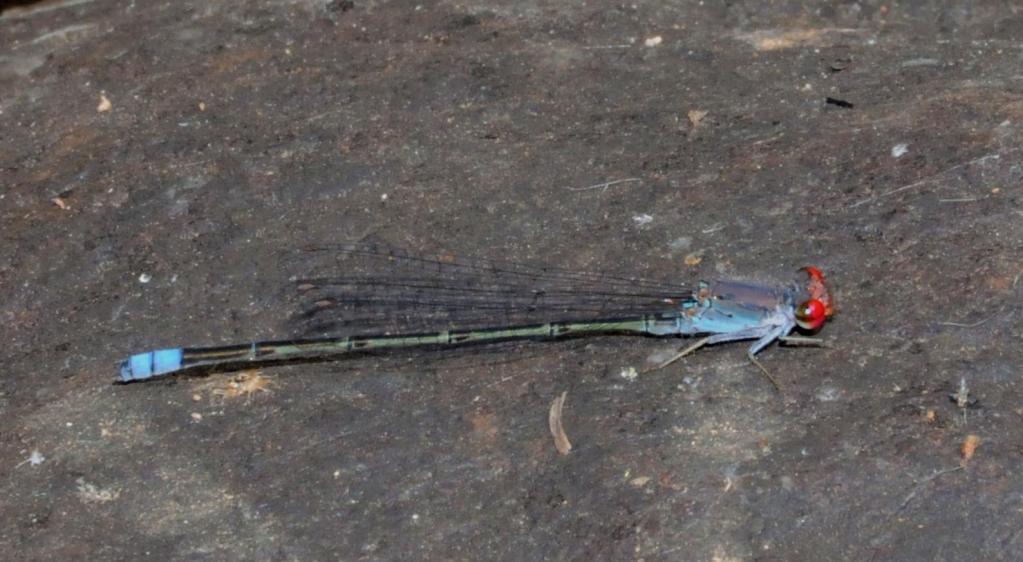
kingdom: Animalia
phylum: Arthropoda
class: Insecta
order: Odonata
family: Coenagrionidae
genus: Pseudagrion
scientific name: Pseudagrion sublacteum
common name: Cherry-eye sprite
